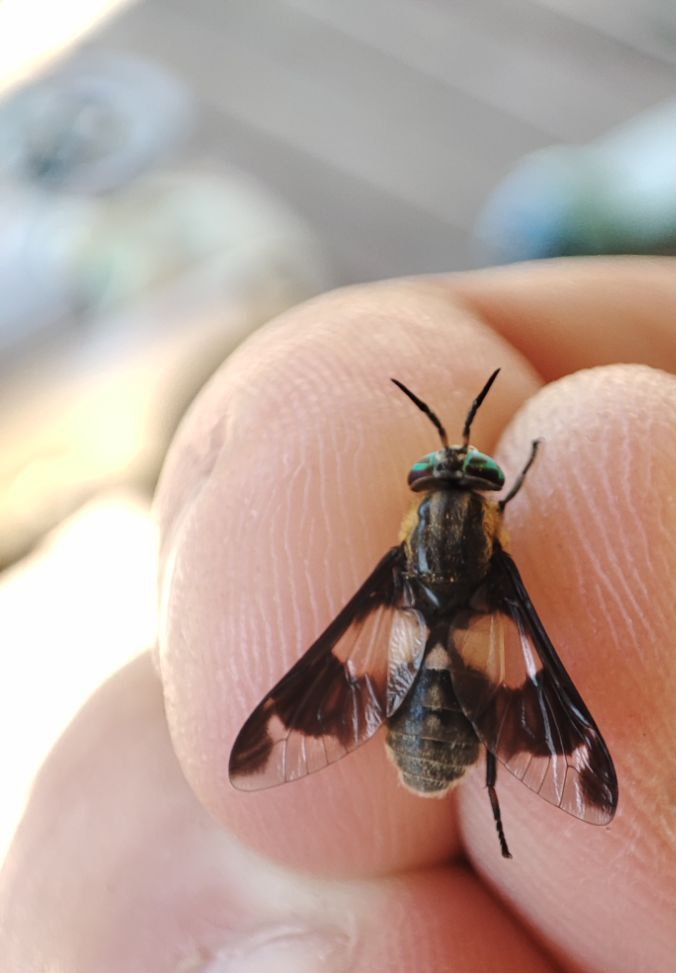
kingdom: Animalia
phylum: Arthropoda
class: Insecta
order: Diptera
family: Tabanidae
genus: Chrysops
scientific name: Chrysops caecutiens
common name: Splayed deerfly
